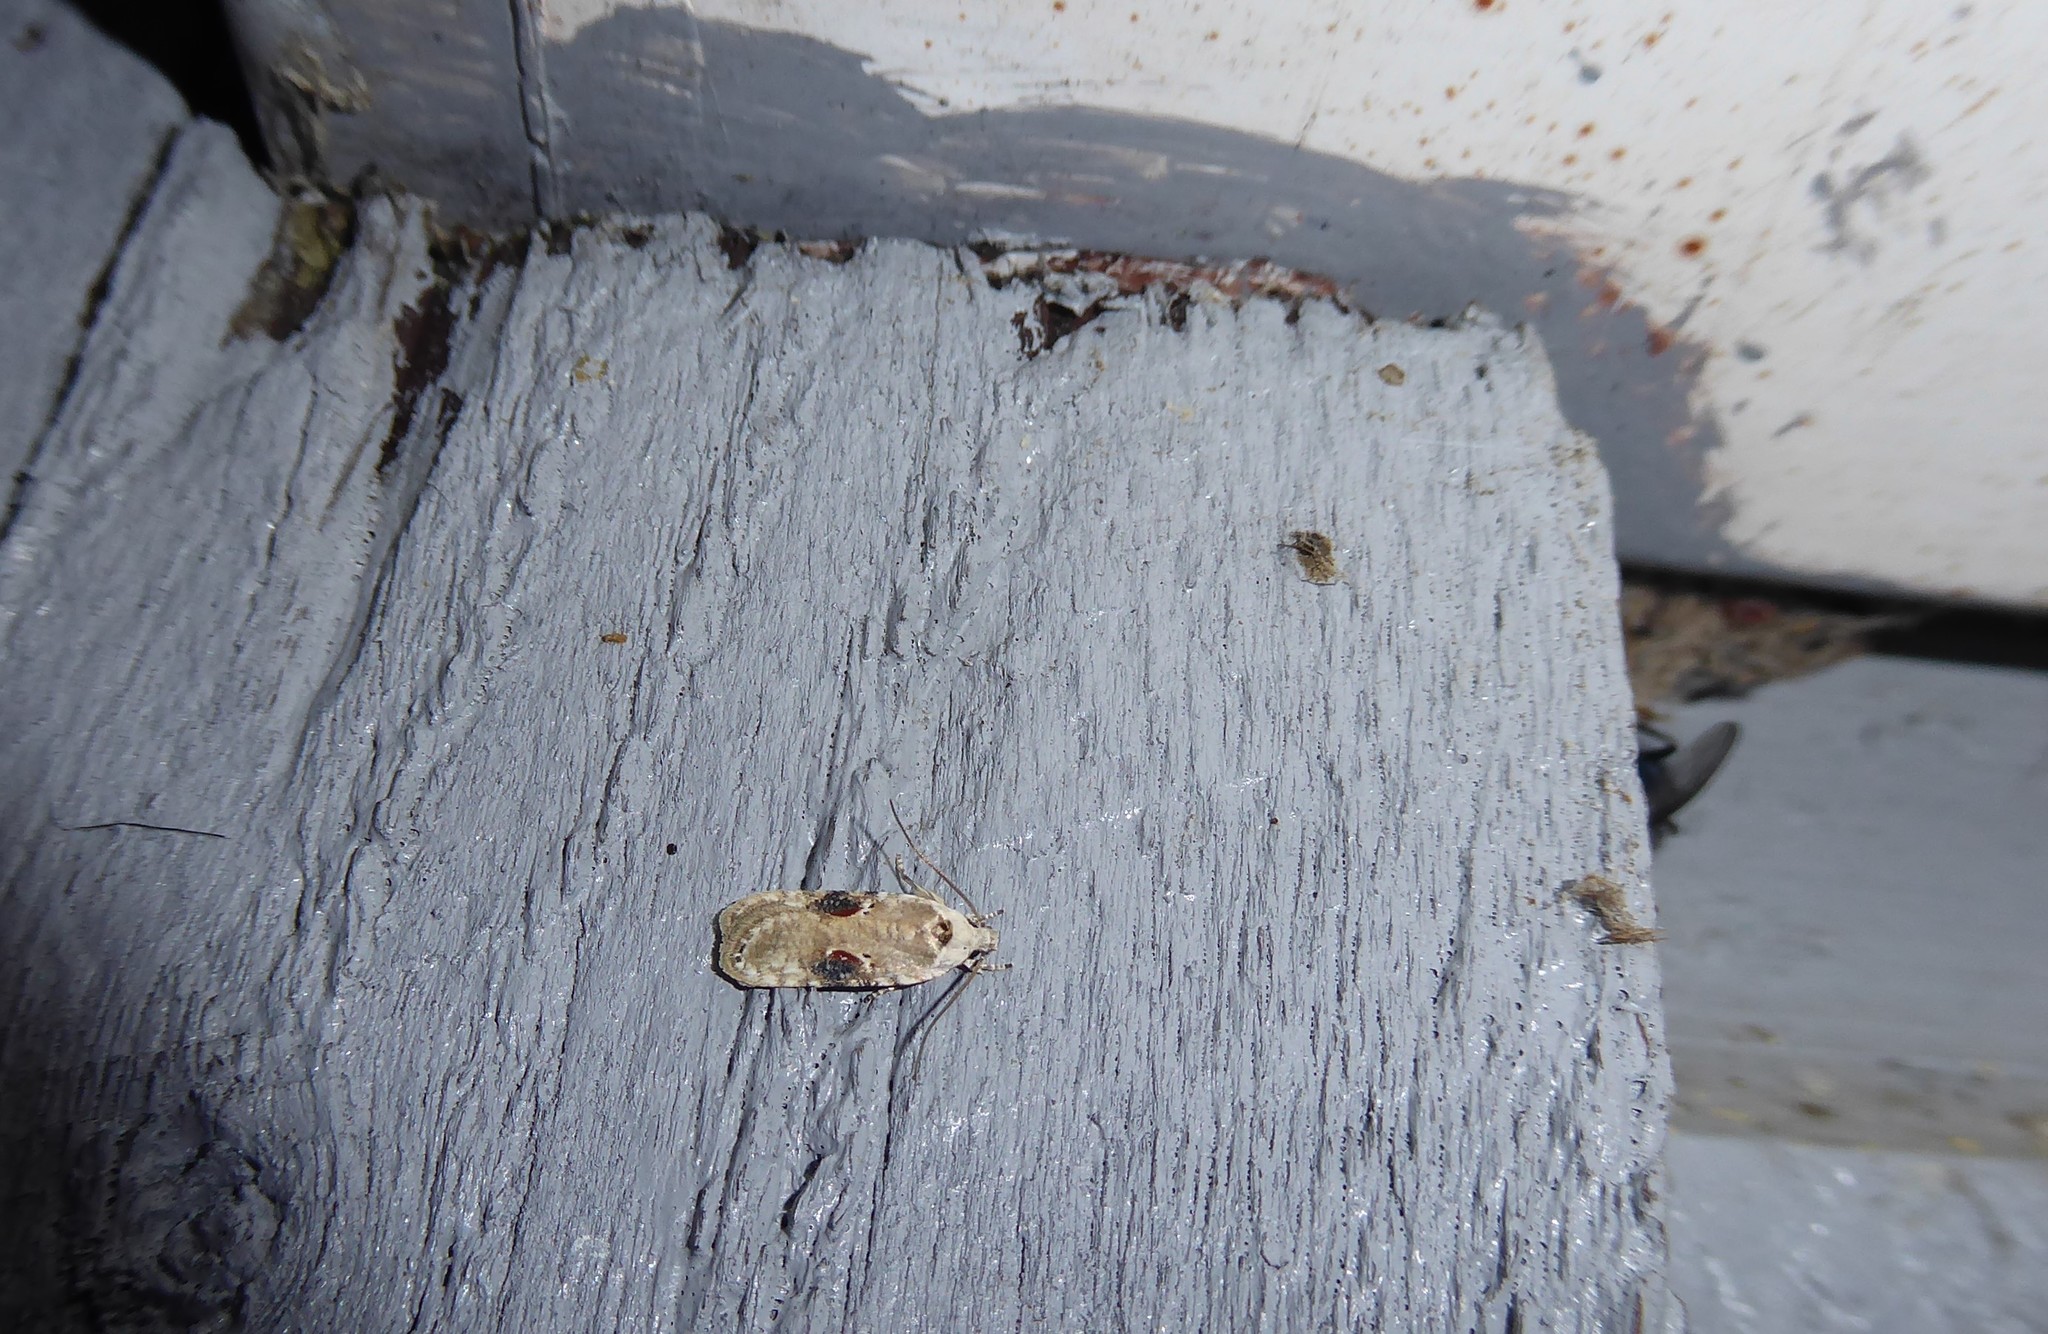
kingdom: Animalia
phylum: Arthropoda
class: Insecta
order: Lepidoptera
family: Depressariidae
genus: Agonopterix
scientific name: Agonopterix alstroemeriana
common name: Moth
